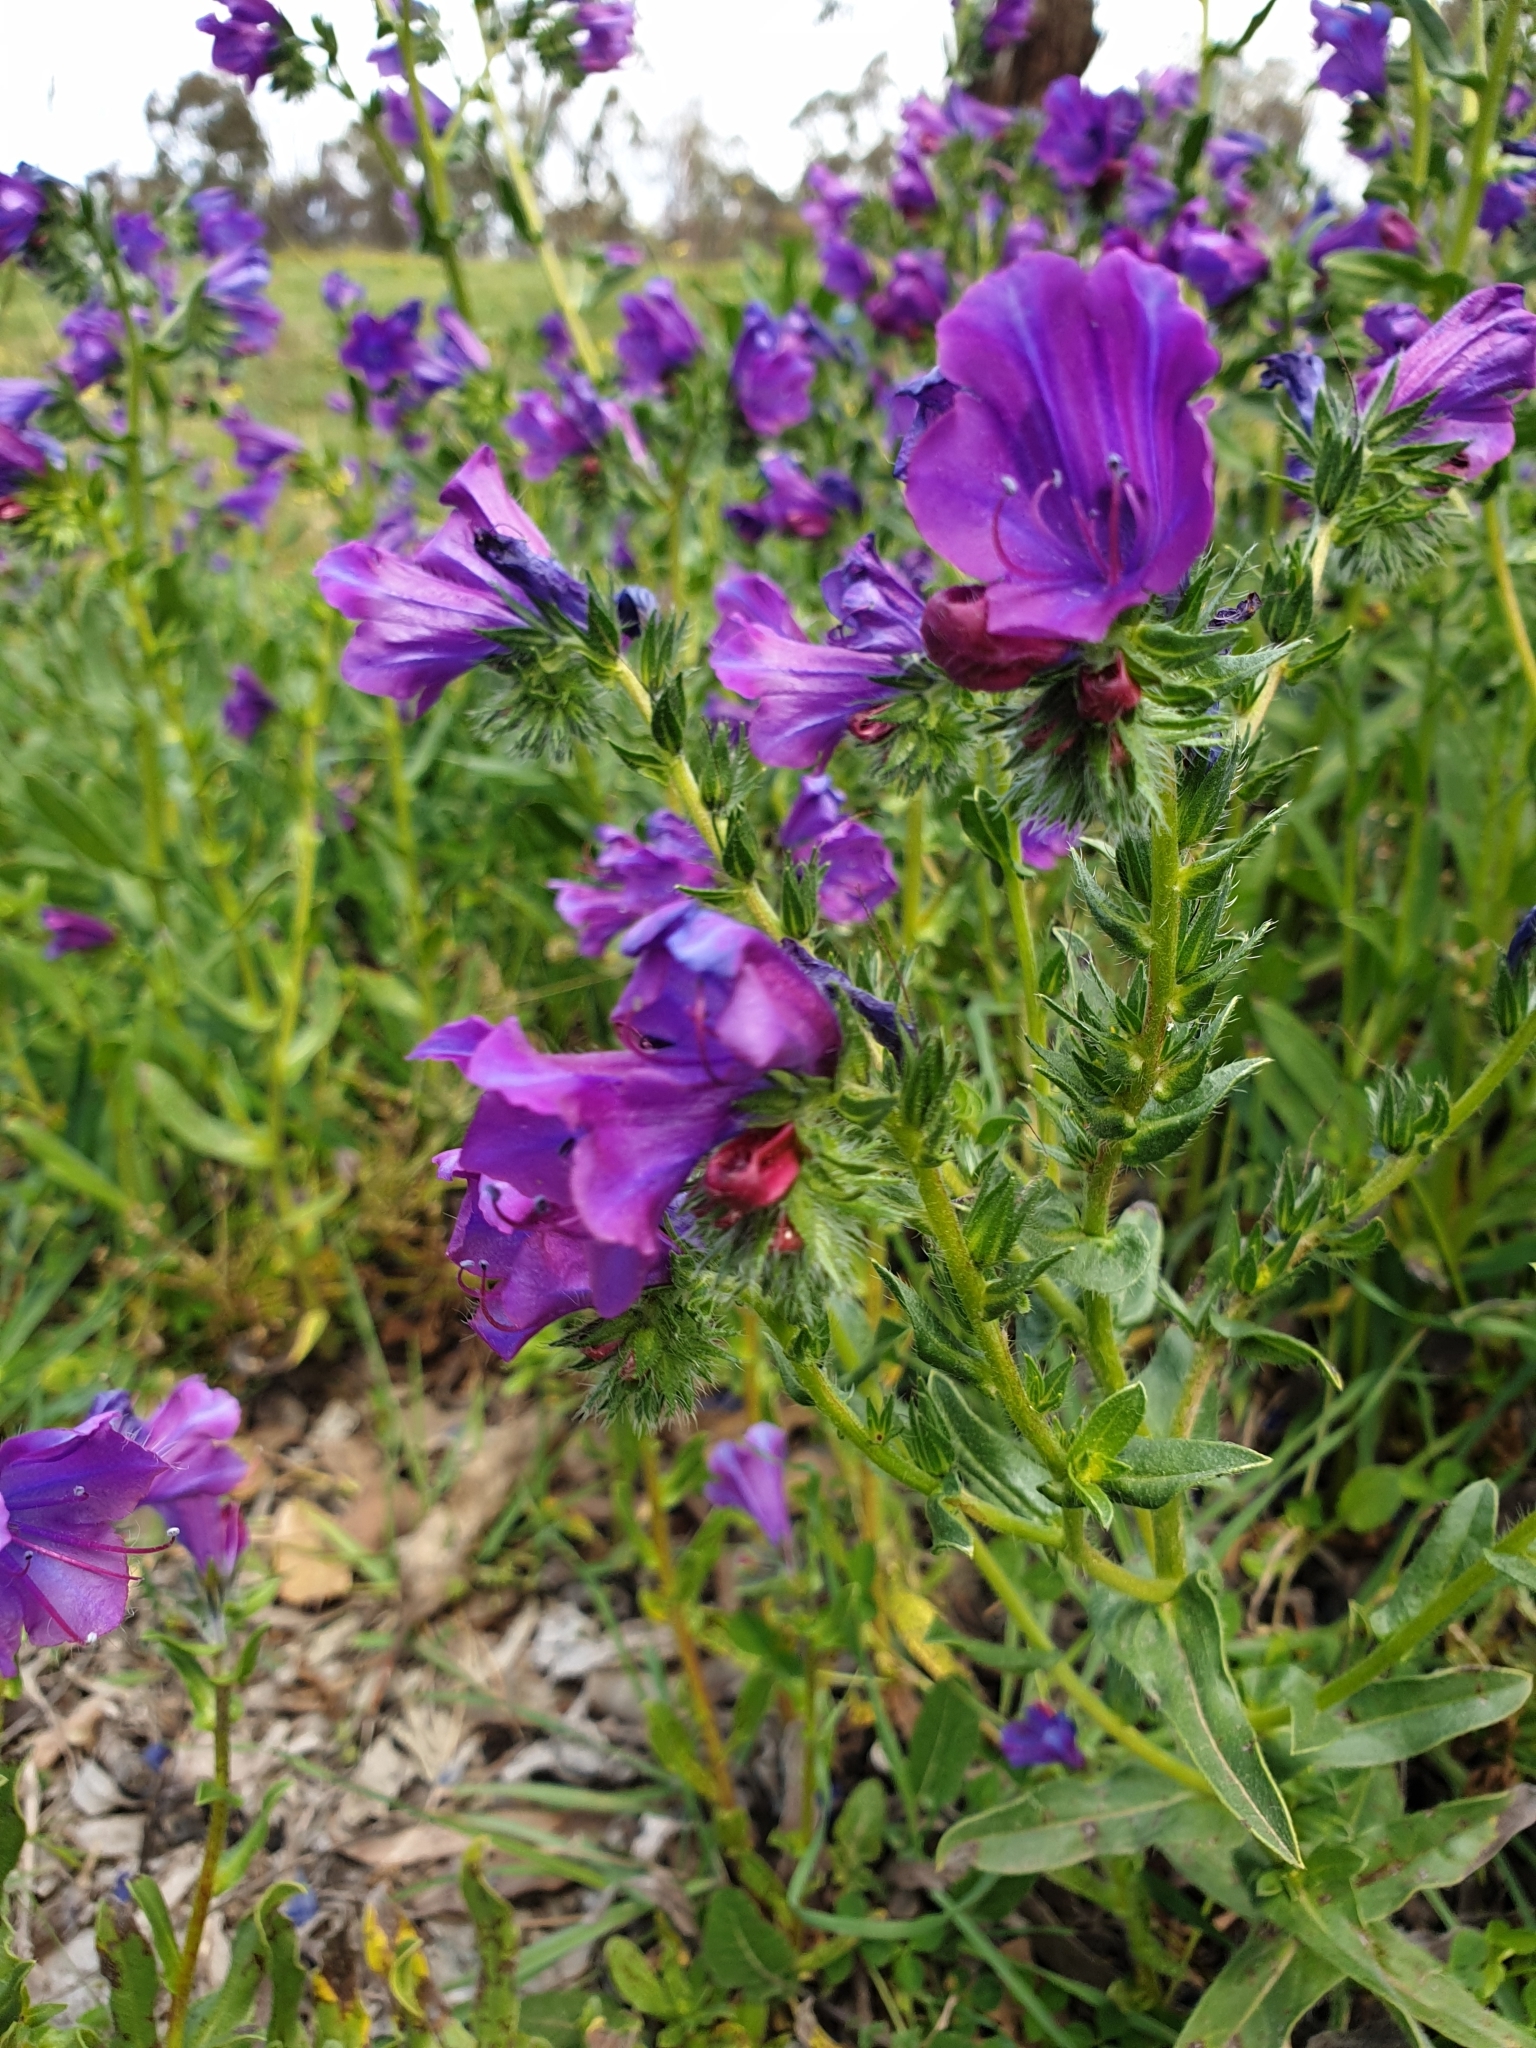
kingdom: Plantae
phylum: Tracheophyta
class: Magnoliopsida
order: Boraginales
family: Boraginaceae
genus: Echium
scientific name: Echium plantagineum
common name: Purple viper's-bugloss
